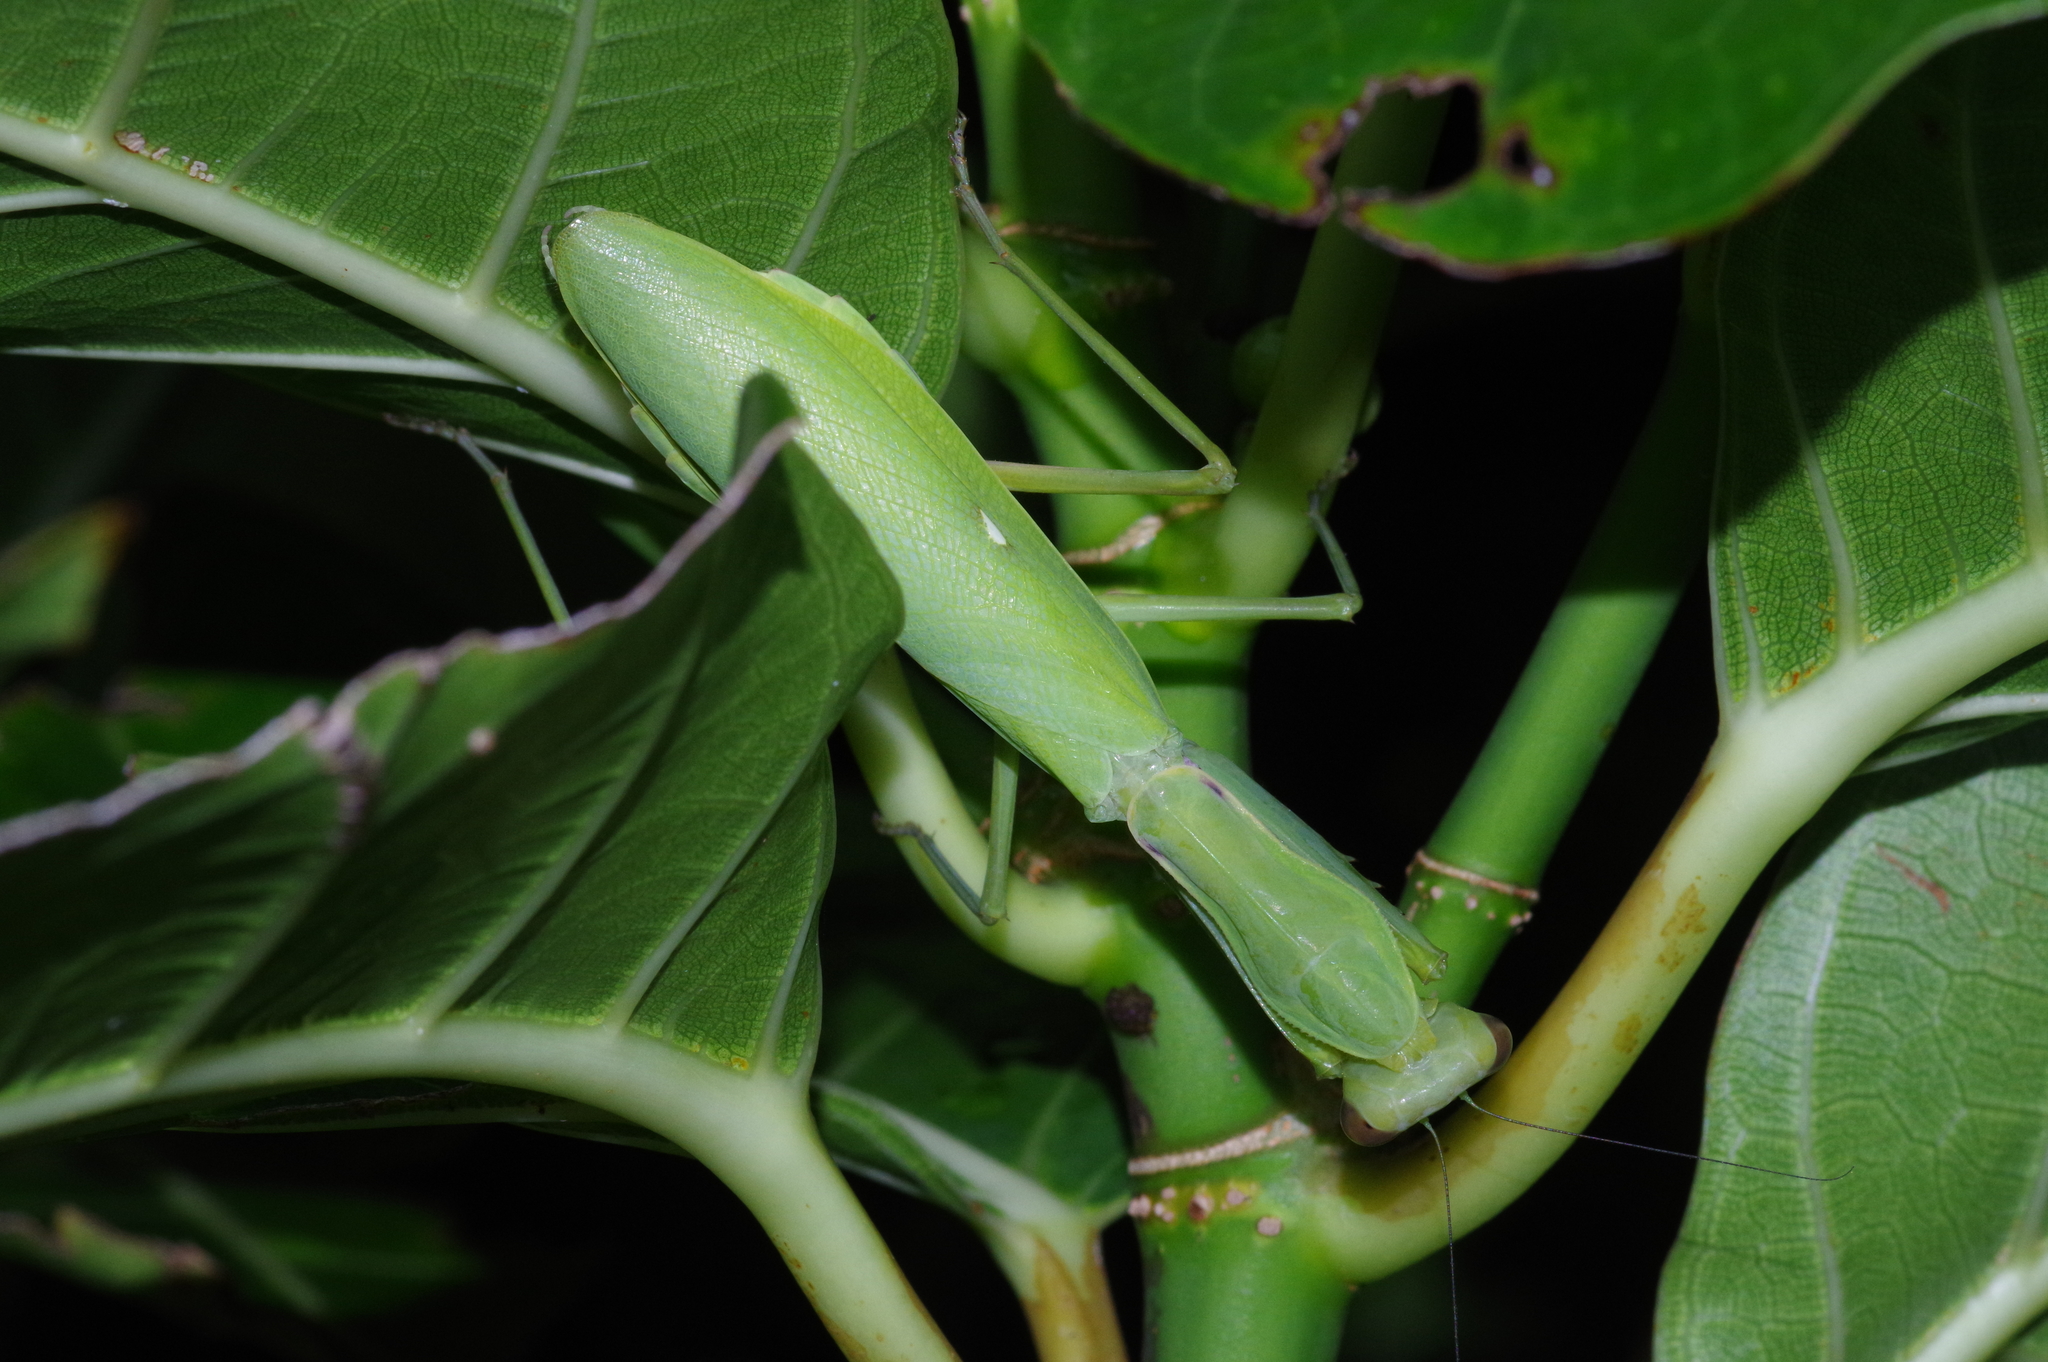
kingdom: Animalia
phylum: Arthropoda
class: Insecta
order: Mantodea
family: Mantidae
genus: Hierodula
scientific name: Hierodula patellifera
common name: Asian mantis
